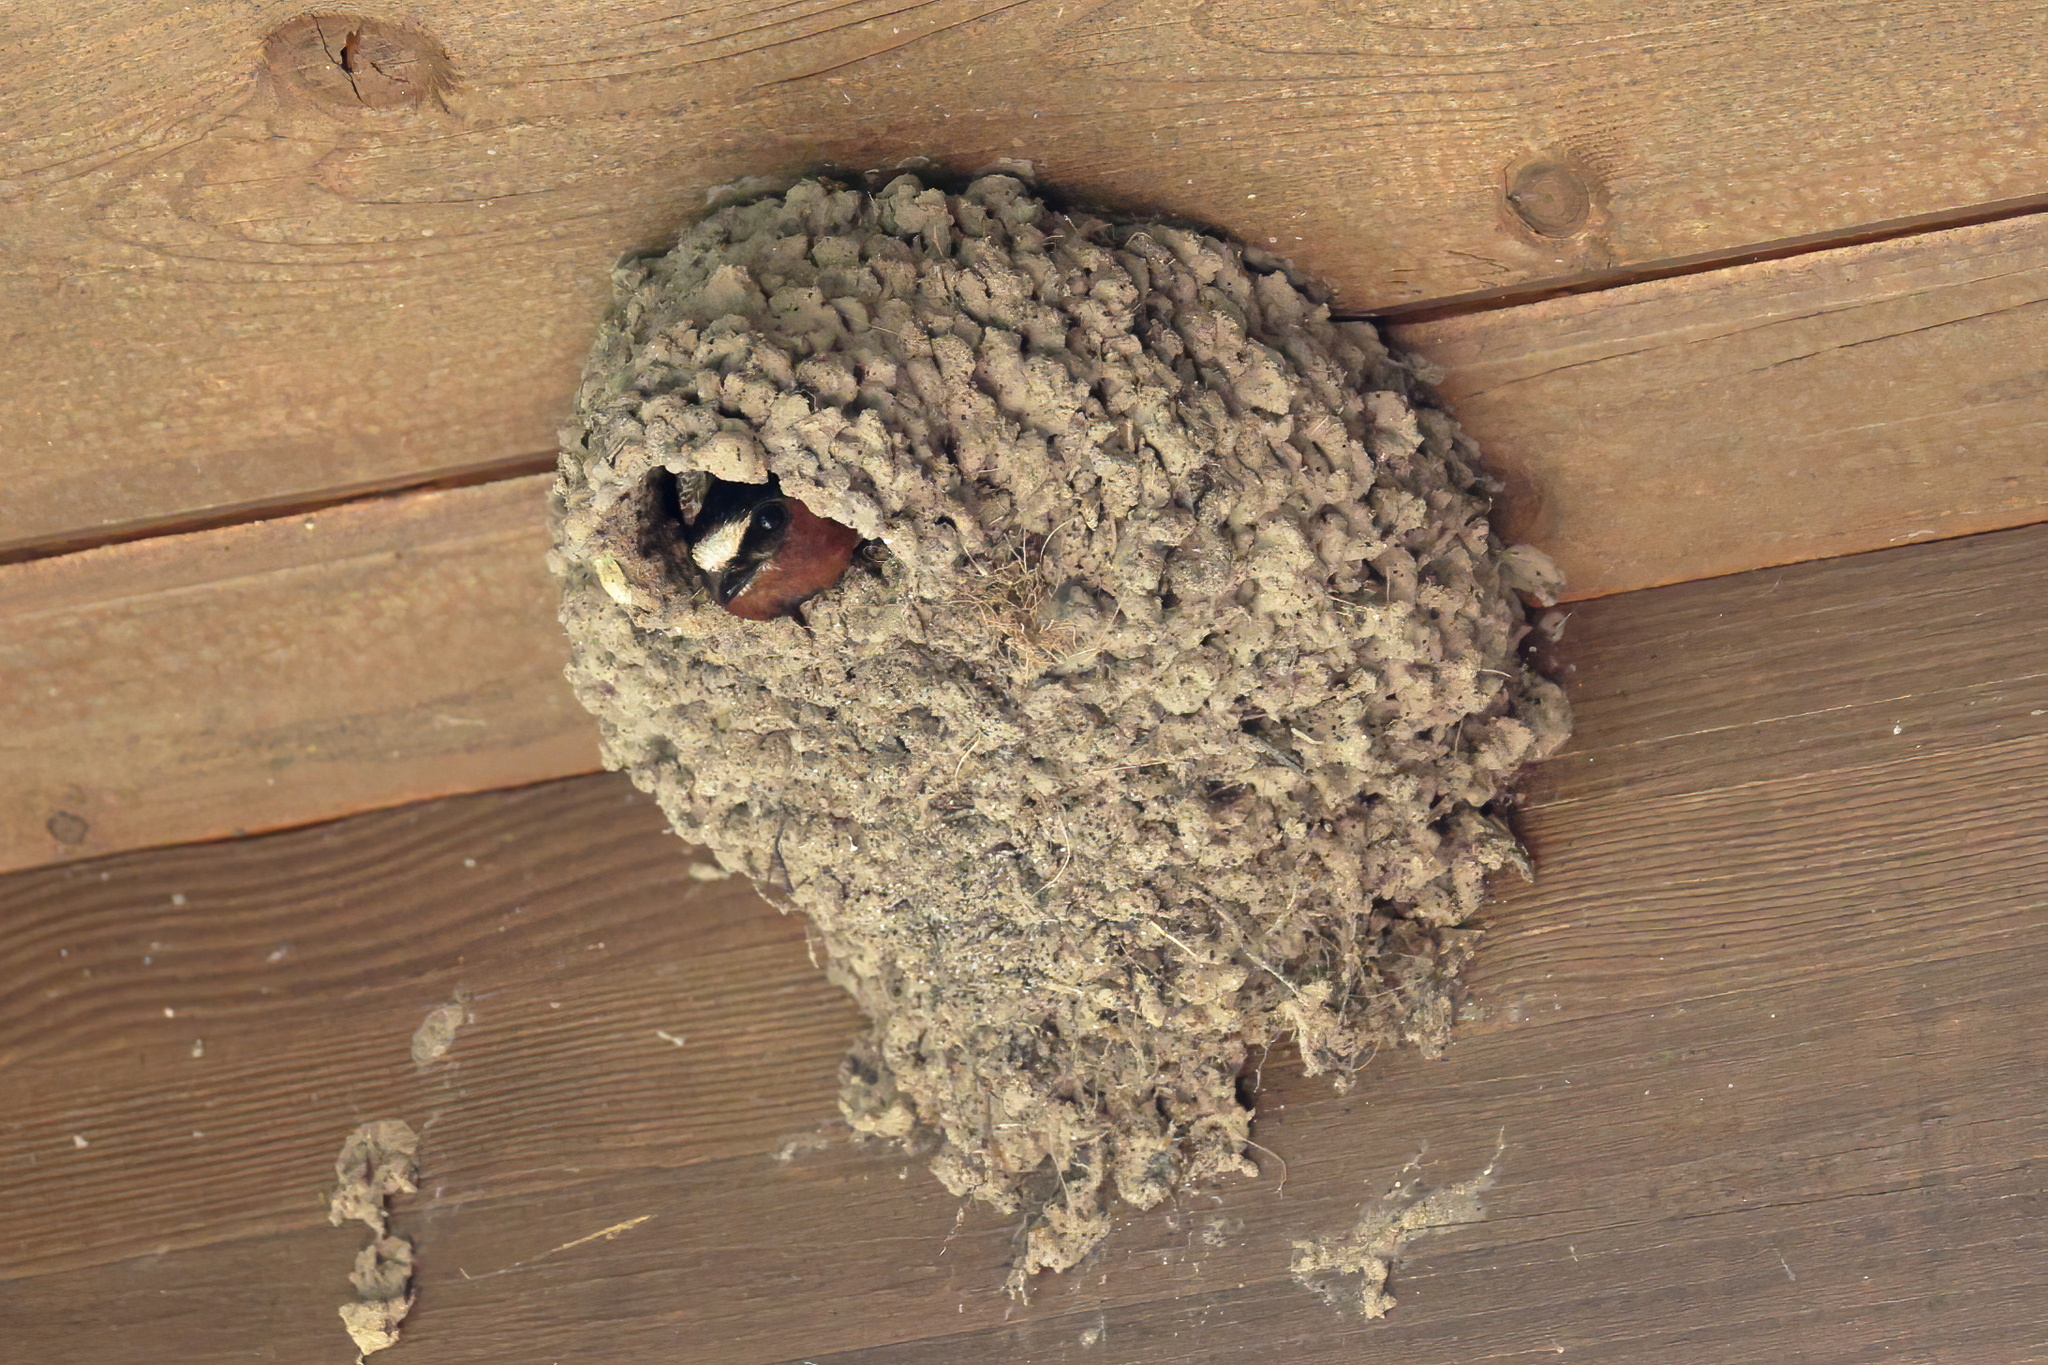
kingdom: Animalia
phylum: Chordata
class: Aves
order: Passeriformes
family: Hirundinidae
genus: Petrochelidon
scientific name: Petrochelidon pyrrhonota
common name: American cliff swallow
